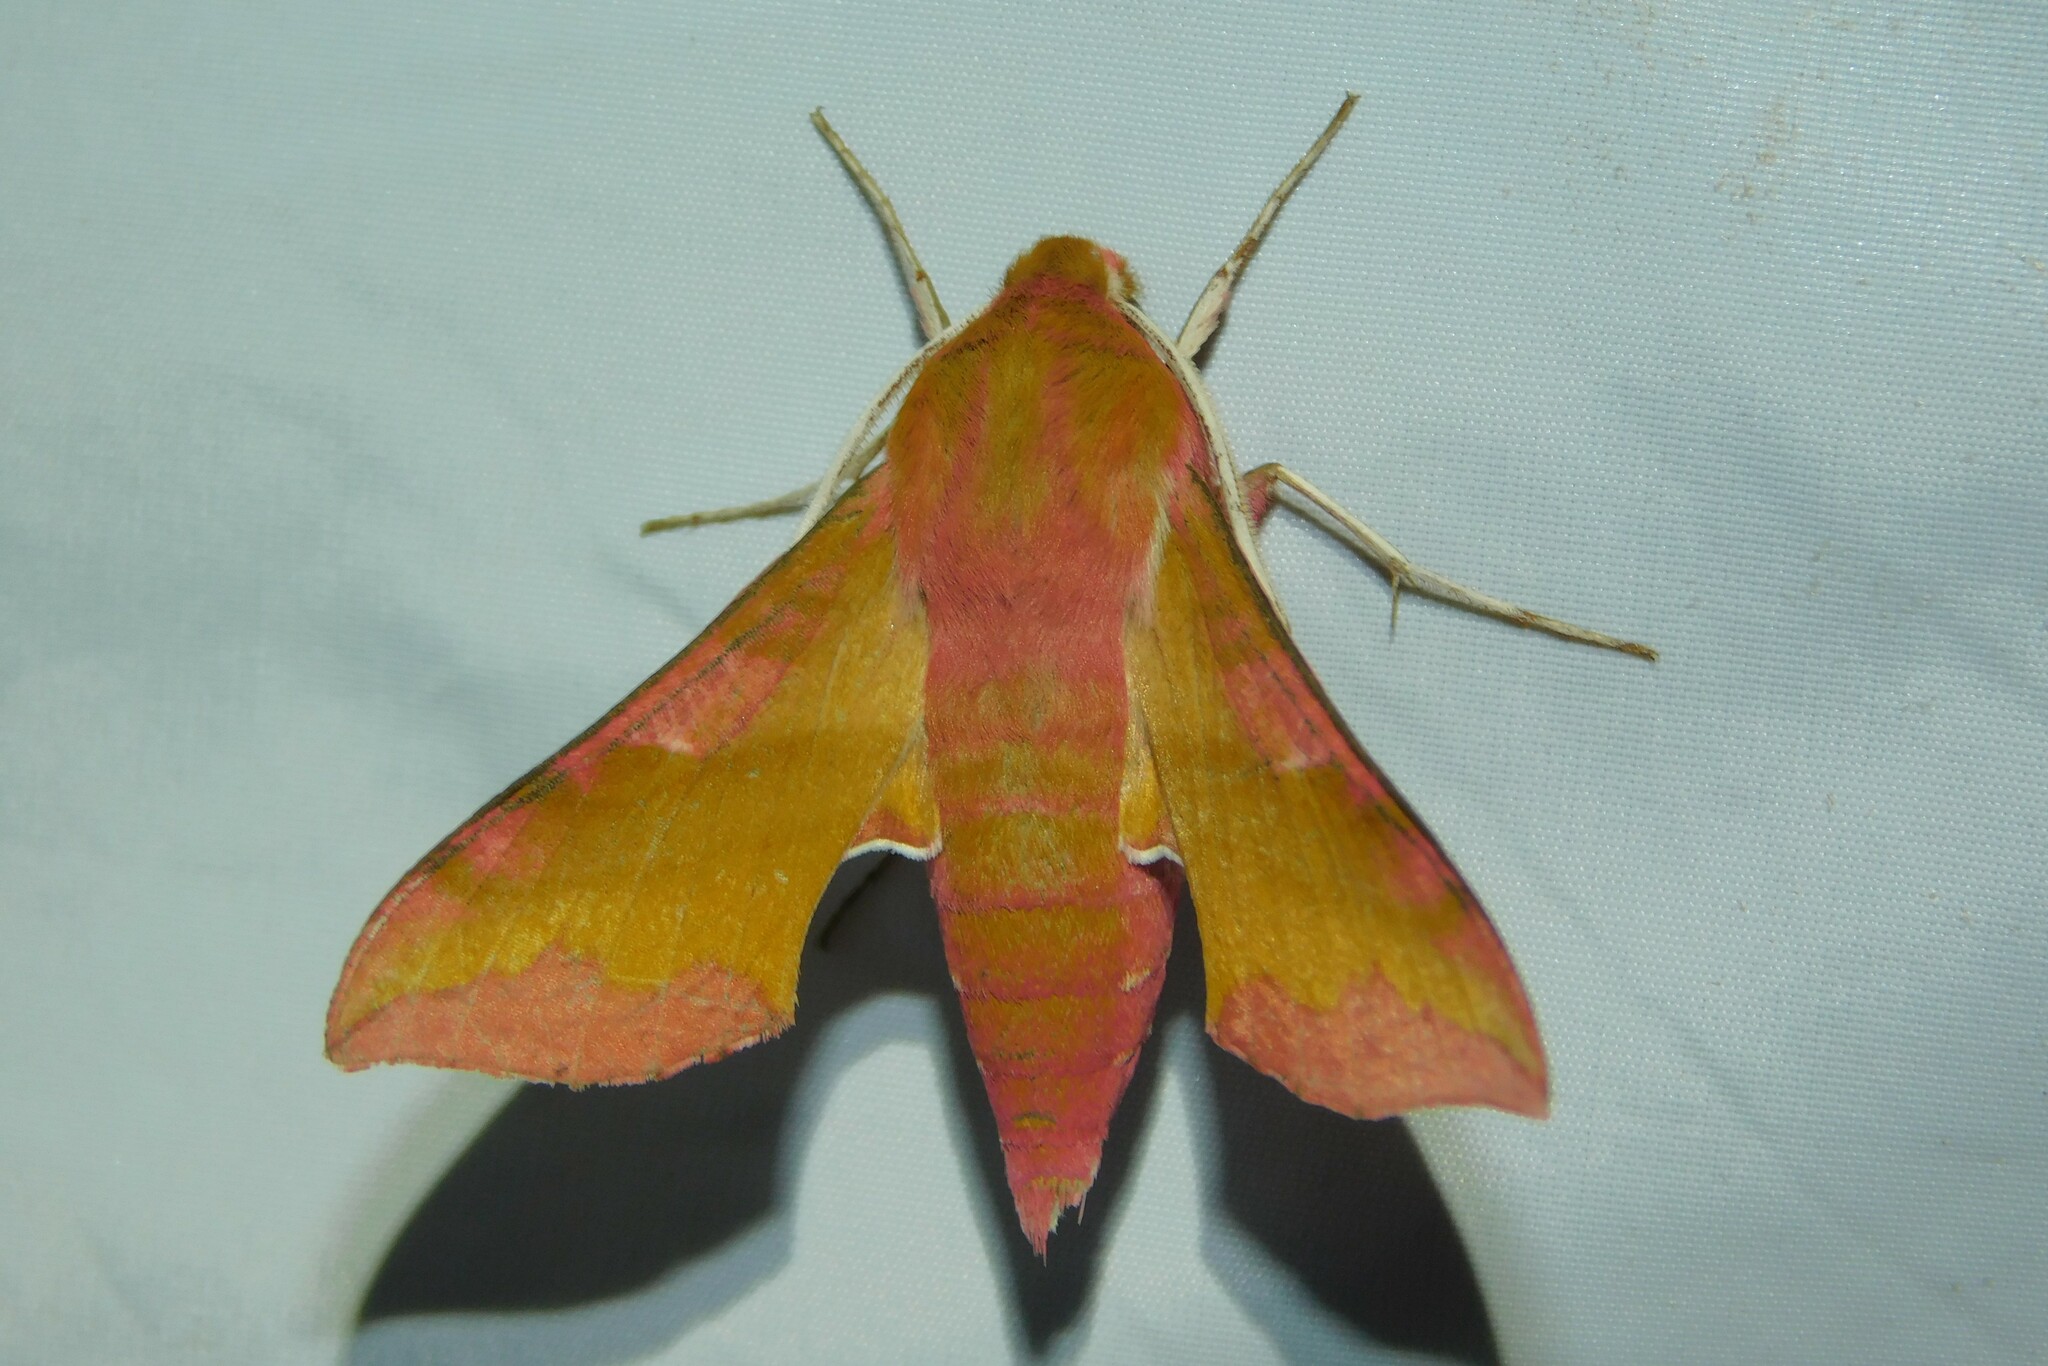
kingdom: Animalia
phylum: Arthropoda
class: Insecta
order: Lepidoptera
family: Sphingidae
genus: Deilephila
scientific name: Deilephila porcellus
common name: Small elephant hawk-moth
